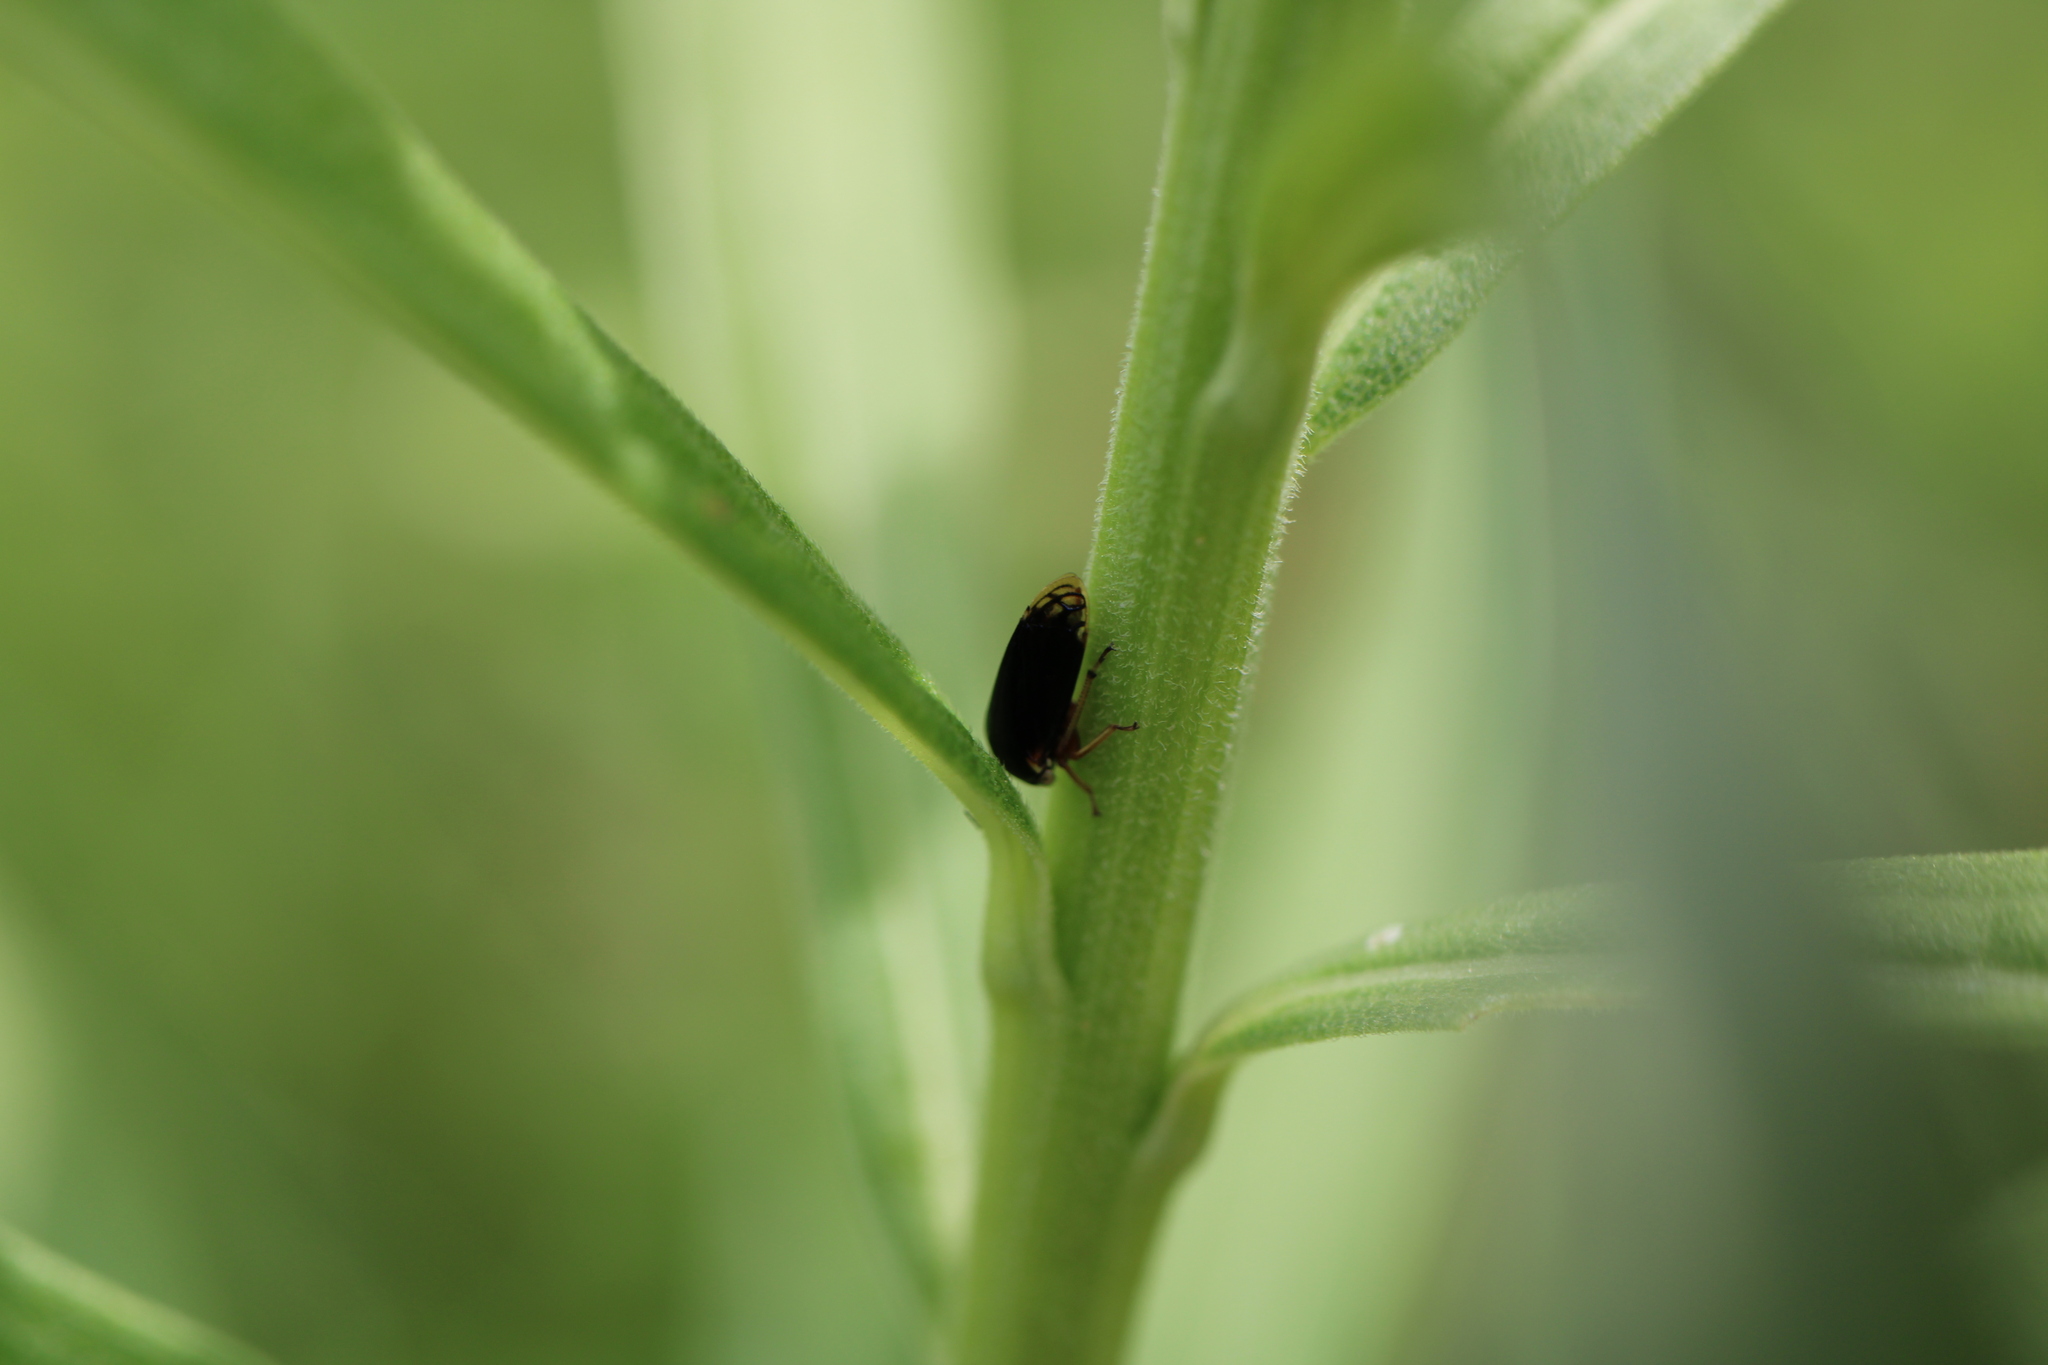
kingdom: Animalia
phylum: Arthropoda
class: Insecta
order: Hemiptera
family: Membracidae
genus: Acutalis
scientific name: Acutalis tartarea
